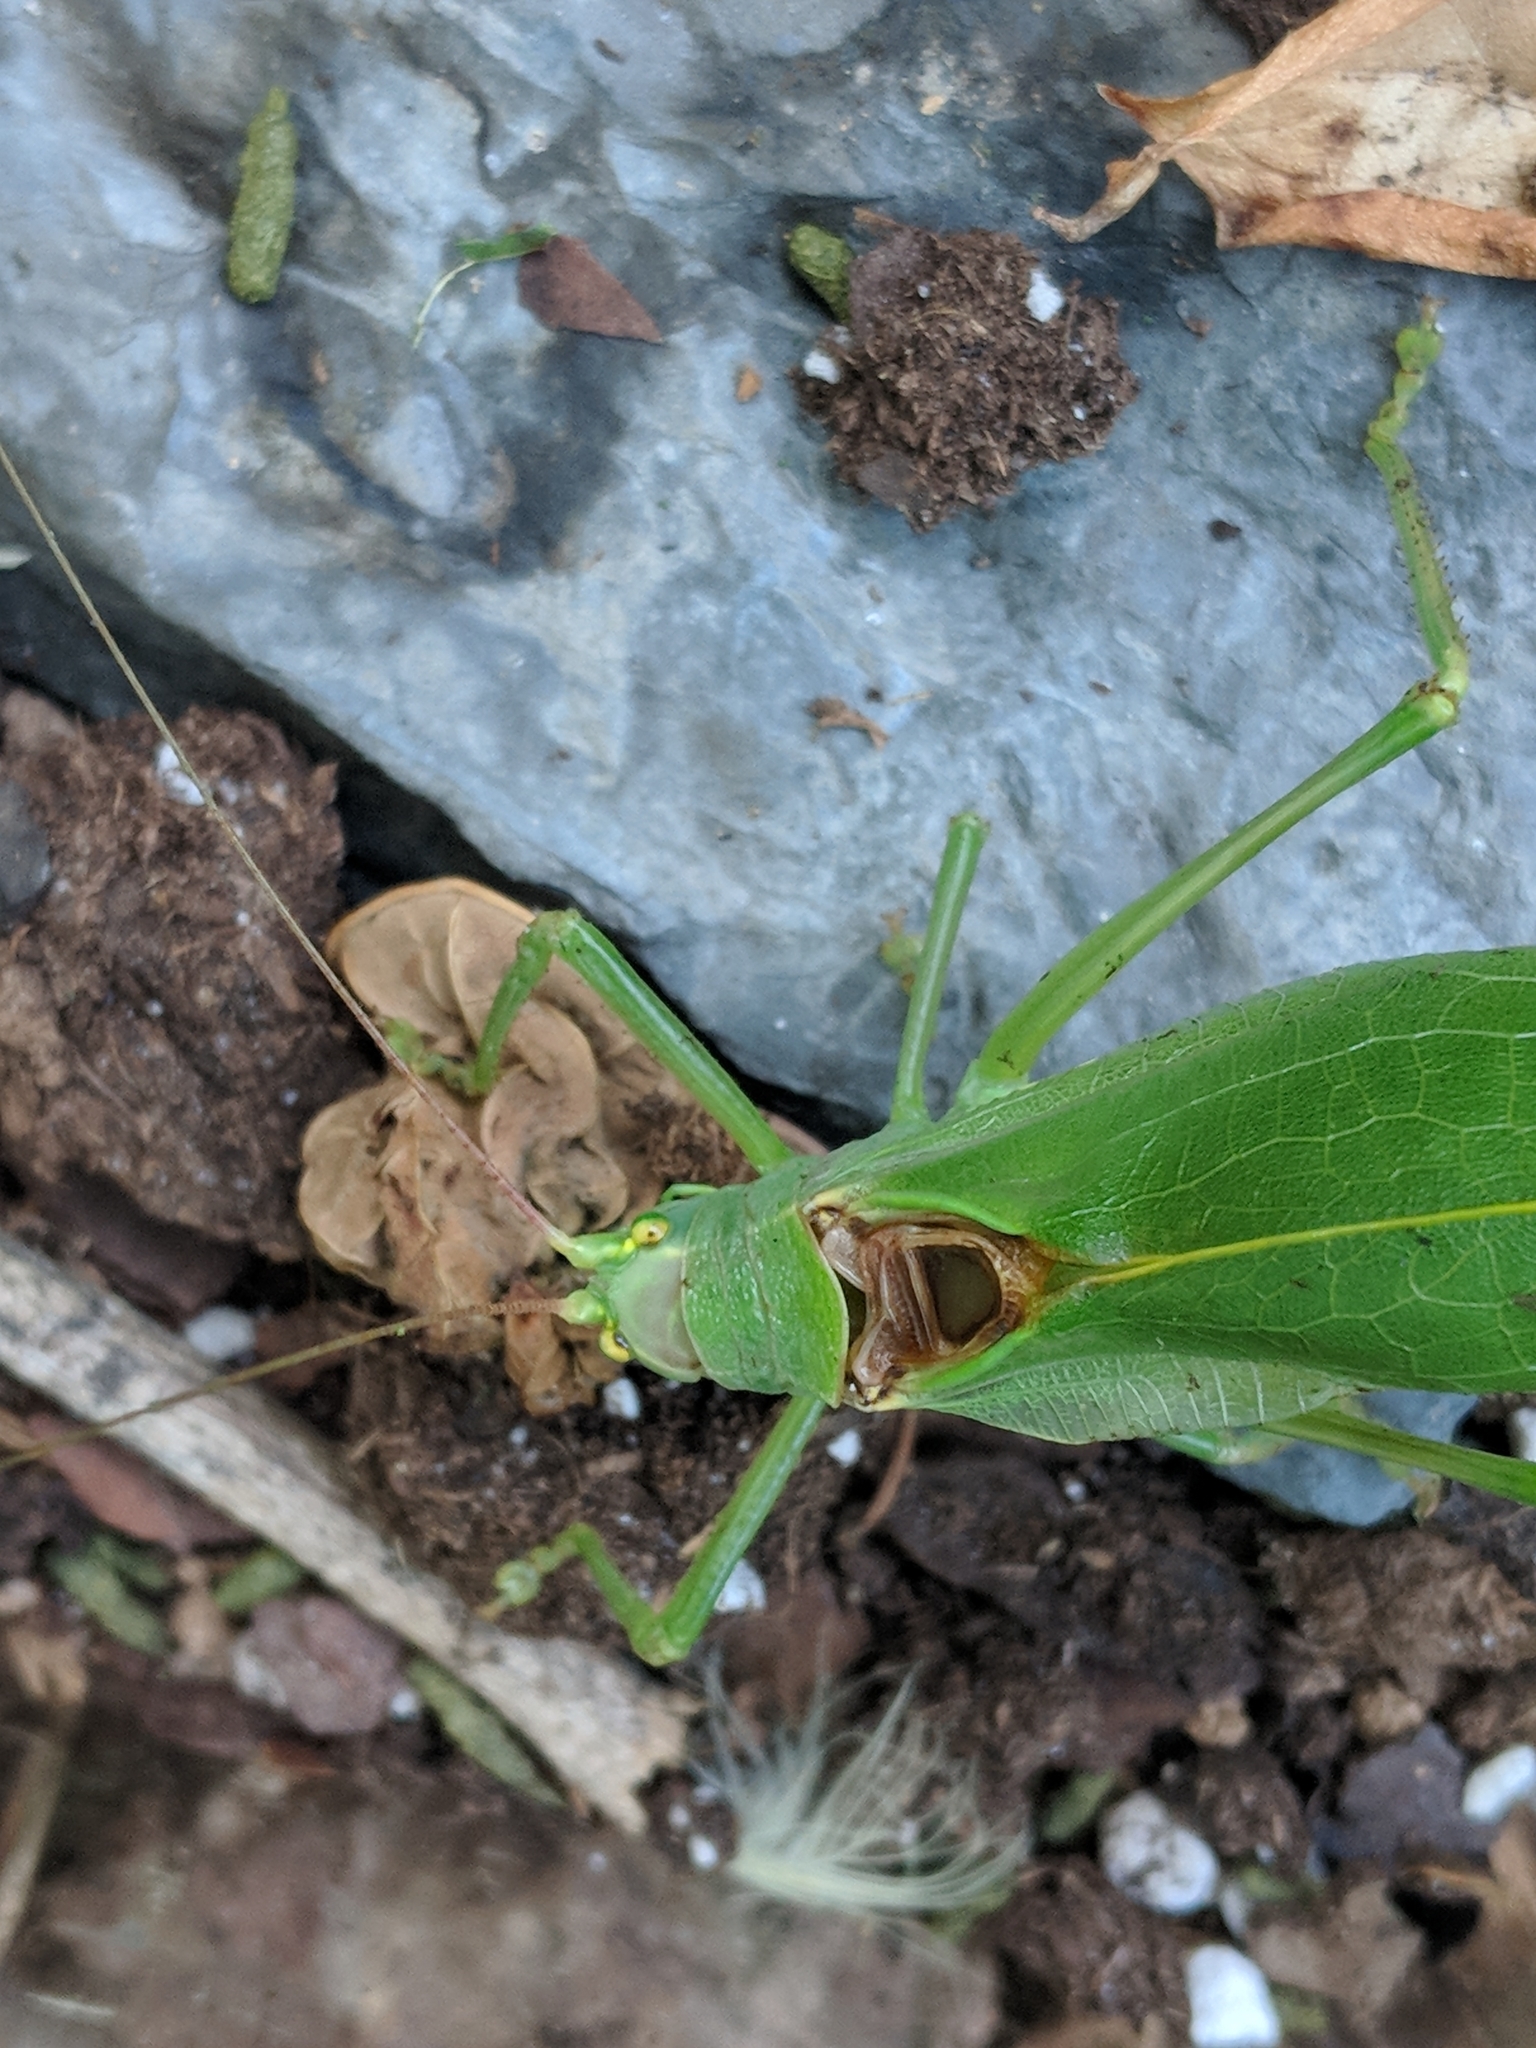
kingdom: Animalia
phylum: Arthropoda
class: Insecta
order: Orthoptera
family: Tettigoniidae
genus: Pterophylla
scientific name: Pterophylla camellifolia
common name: Common true katydid
